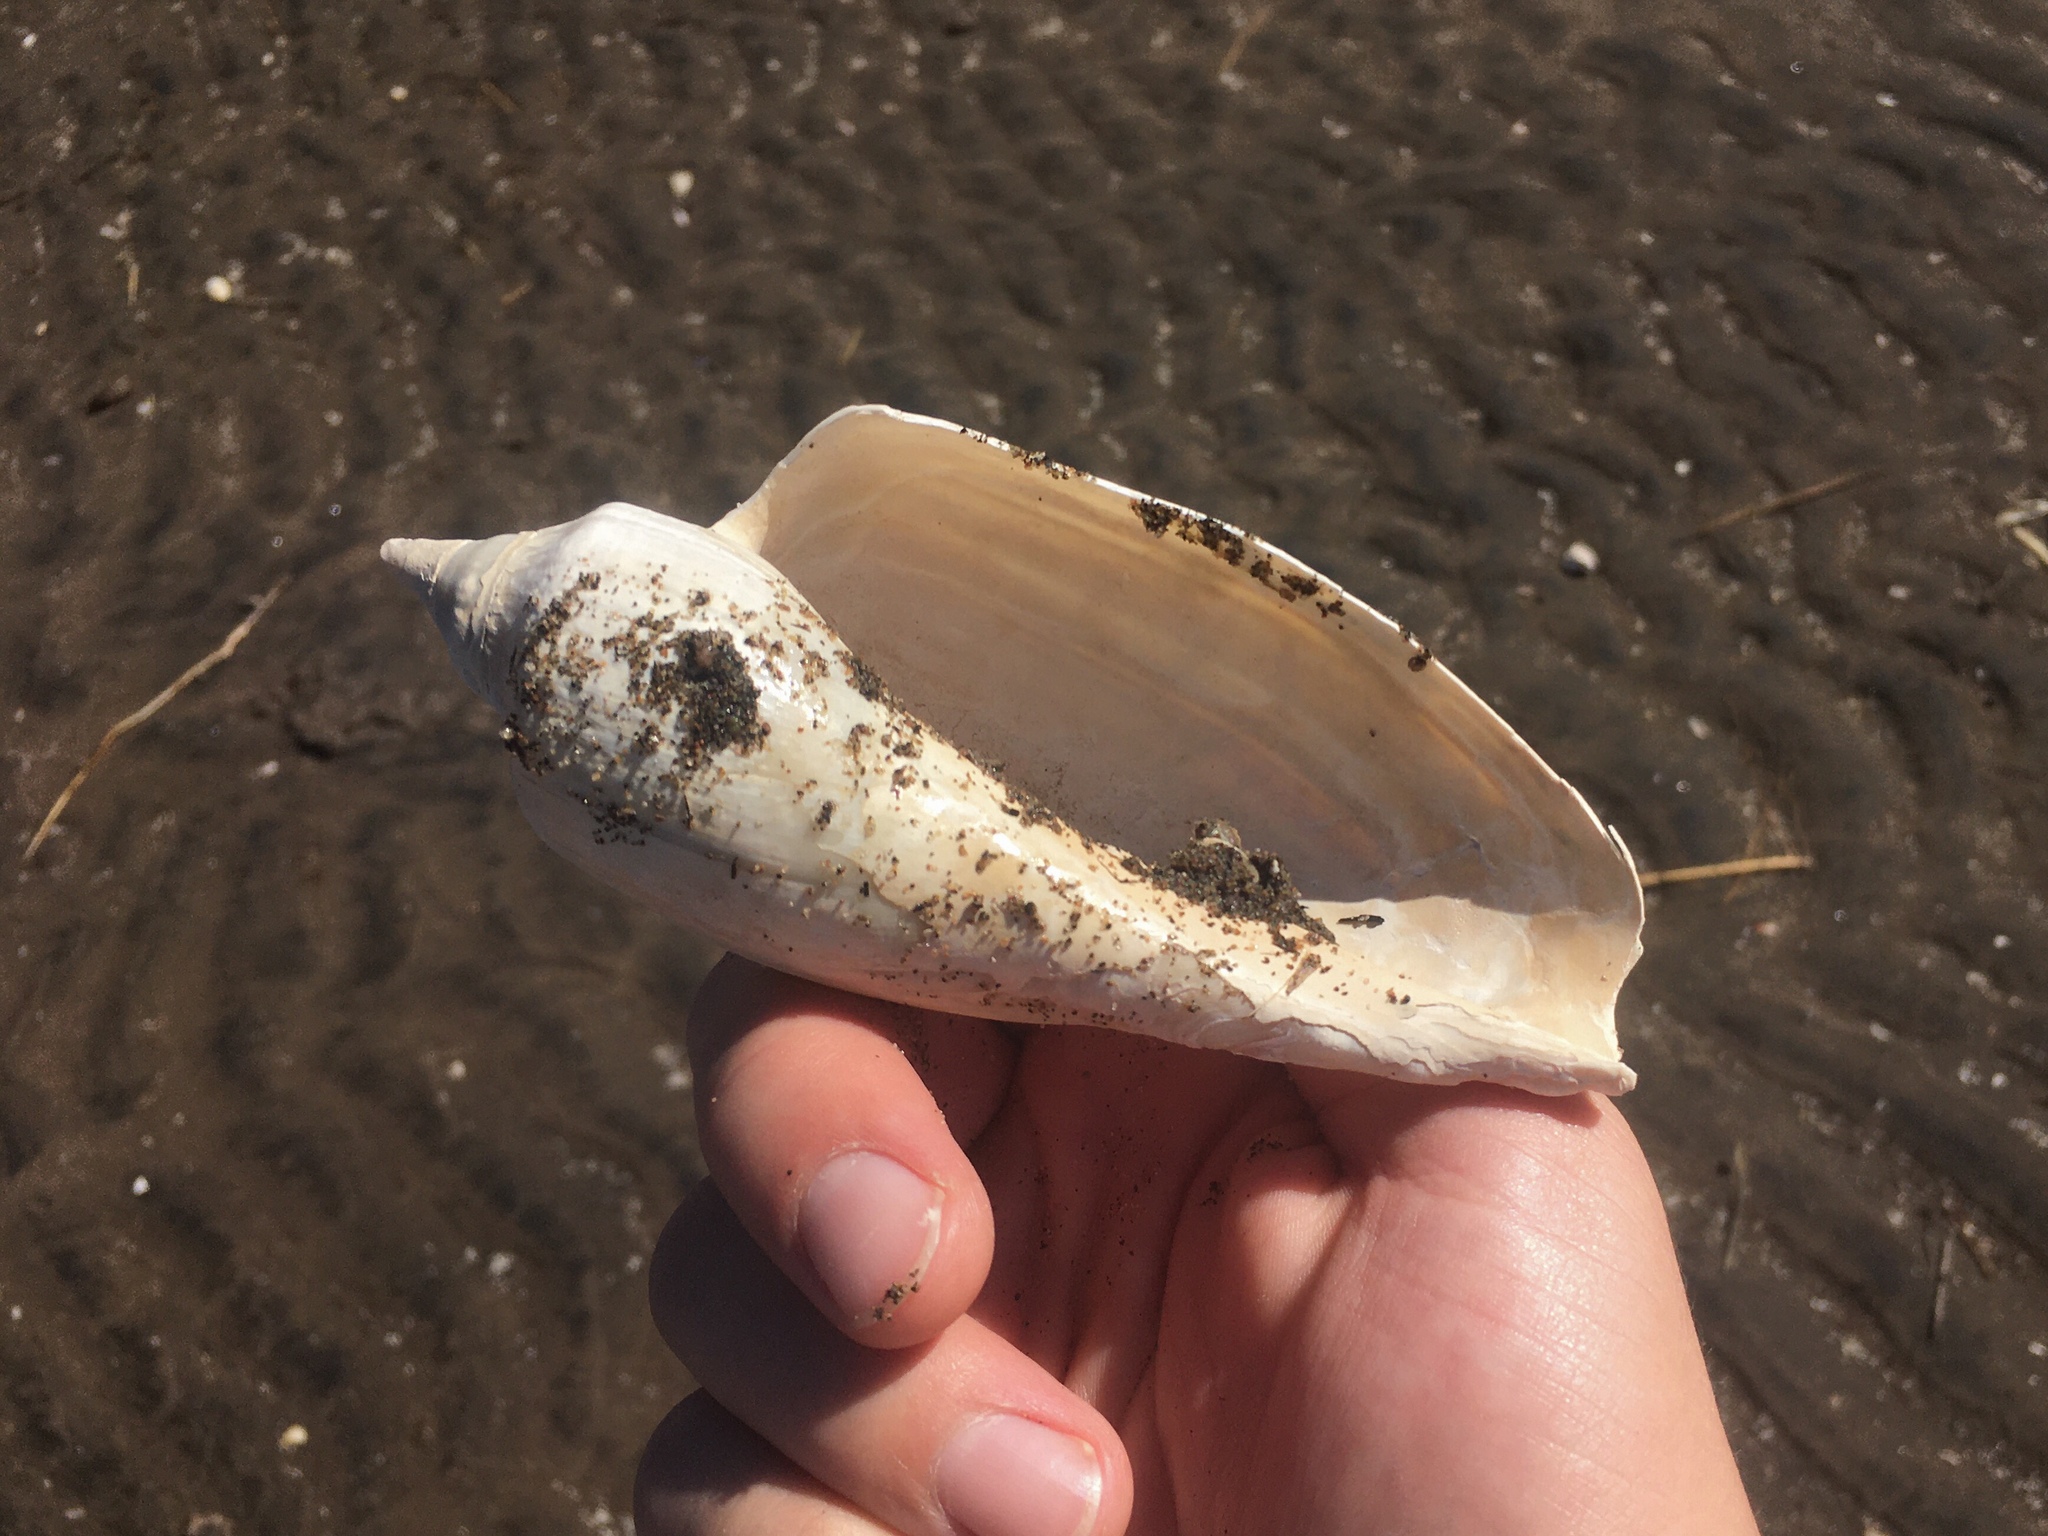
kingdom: Animalia
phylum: Mollusca
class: Gastropoda
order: Neogastropoda
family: Volutidae
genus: Zidona
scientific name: Zidona dufresnii
